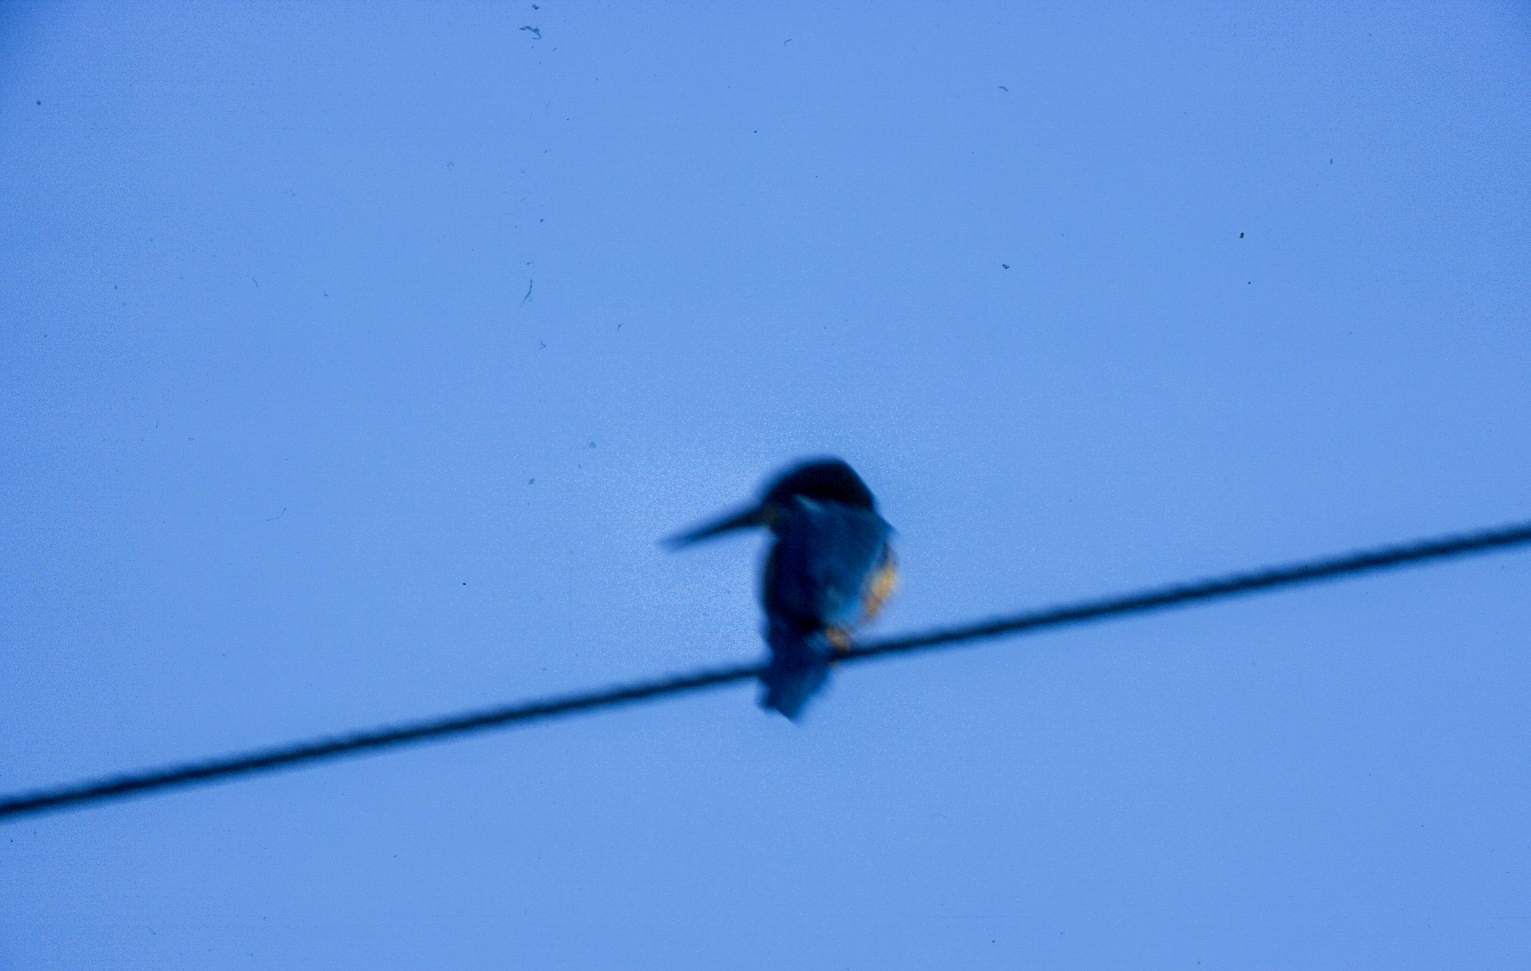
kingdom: Animalia
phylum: Chordata
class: Aves
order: Coraciiformes
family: Alcedinidae
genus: Alcedo
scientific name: Alcedo atthis
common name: Common kingfisher
